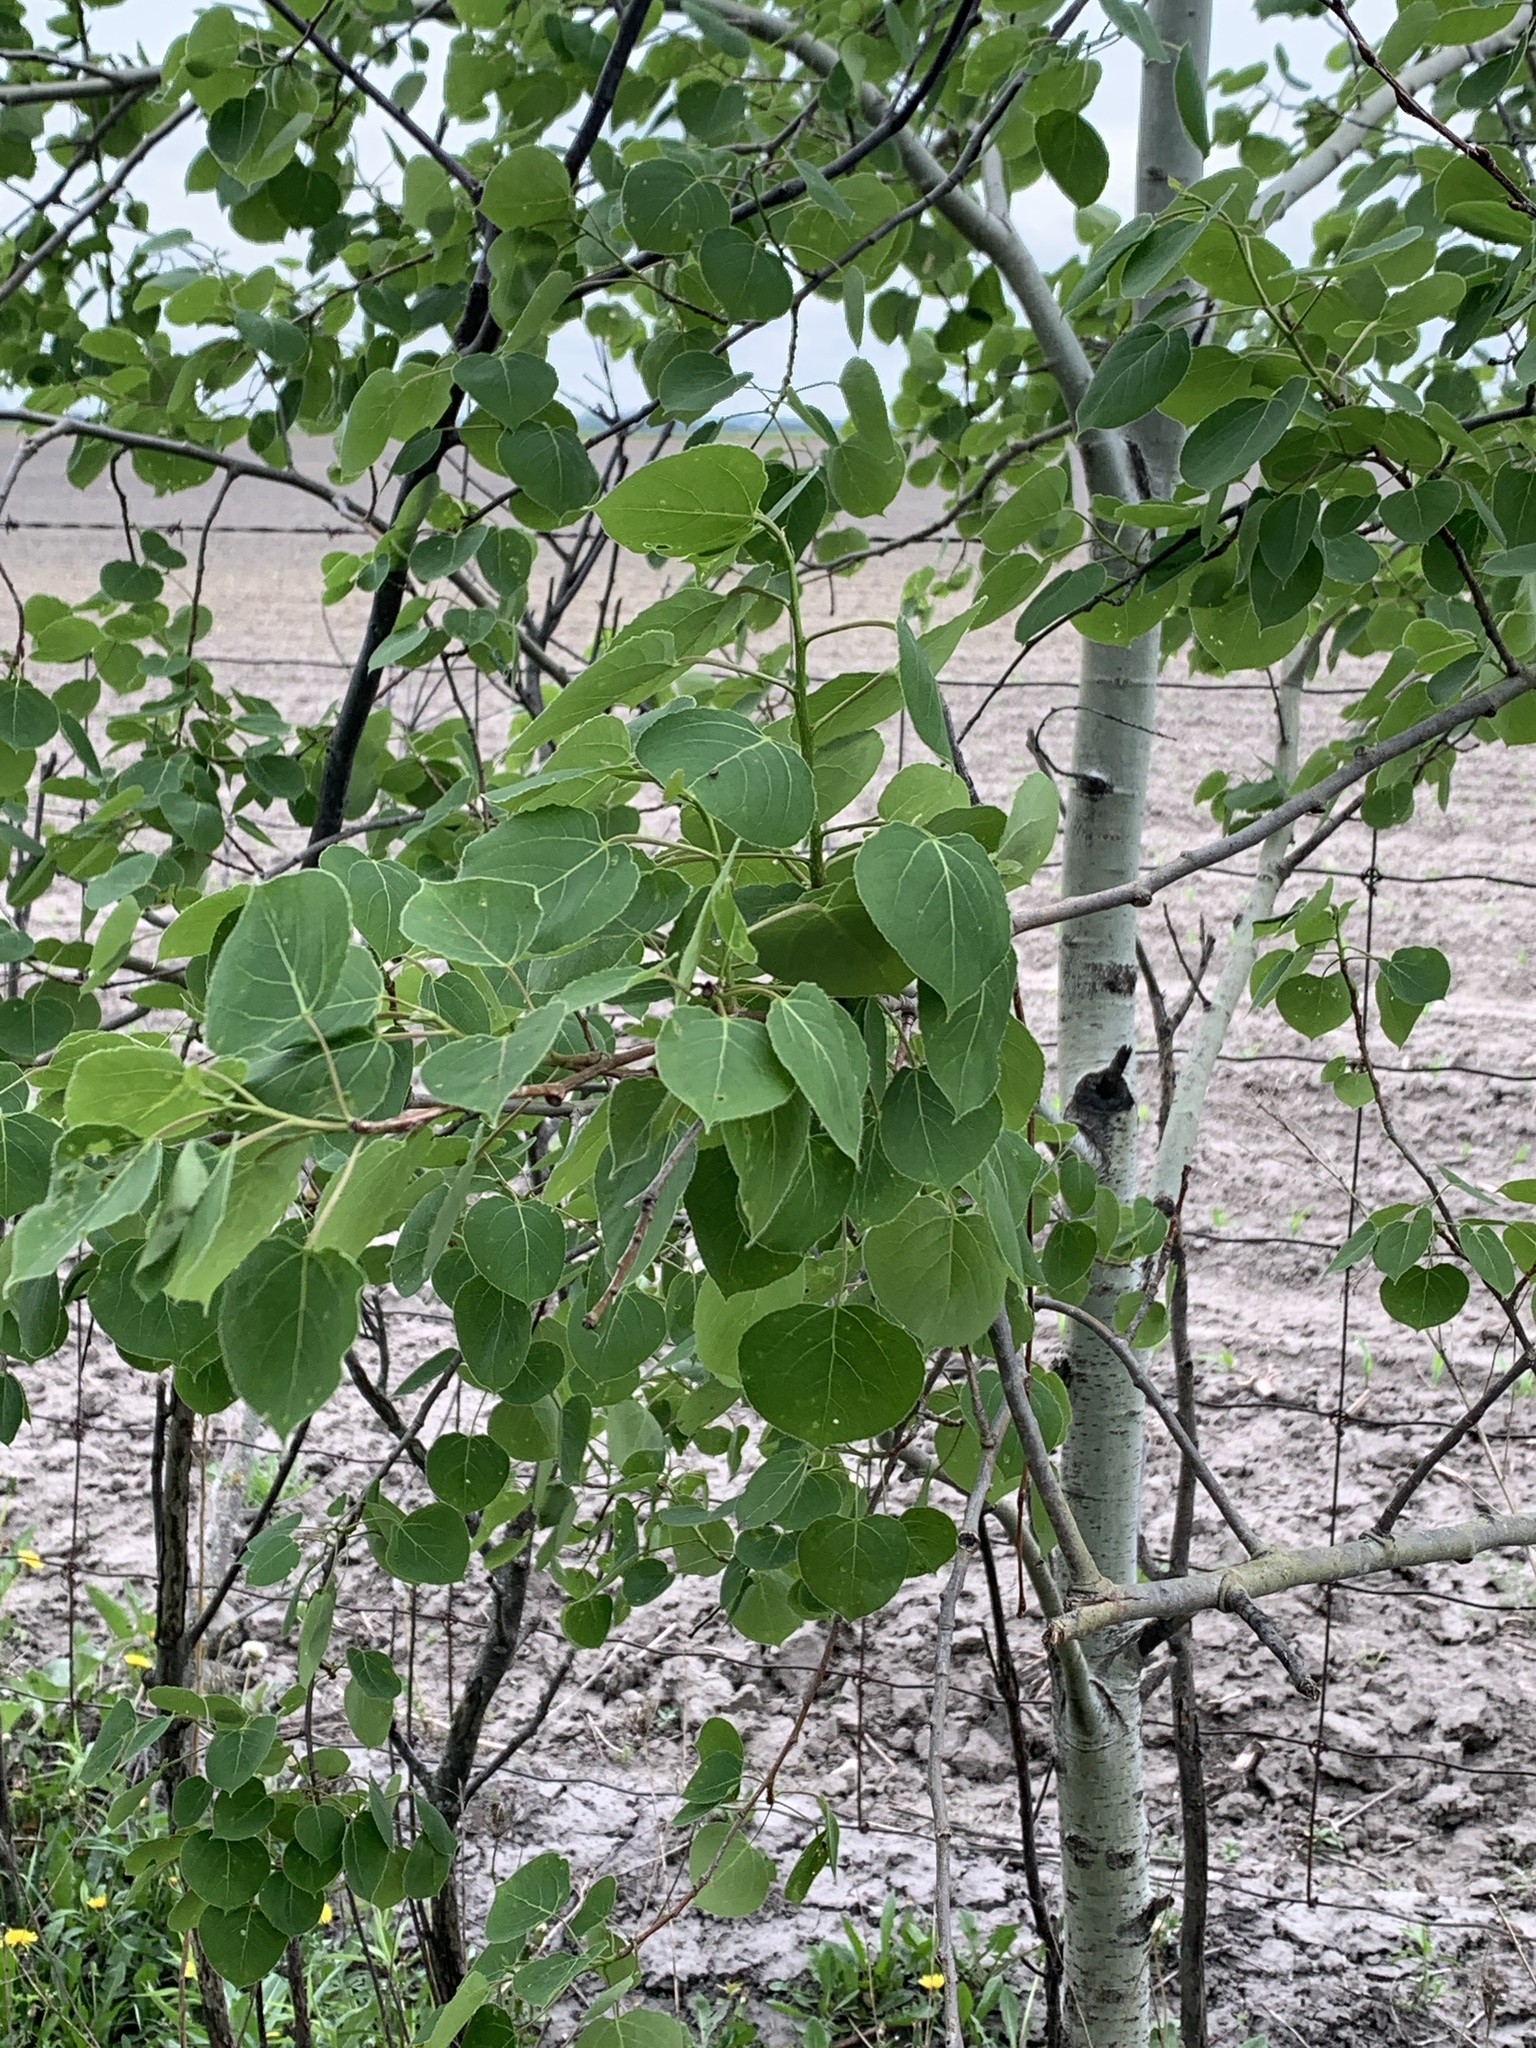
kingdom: Plantae
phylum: Tracheophyta
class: Magnoliopsida
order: Malpighiales
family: Salicaceae
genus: Populus
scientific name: Populus tremuloides
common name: Quaking aspen
